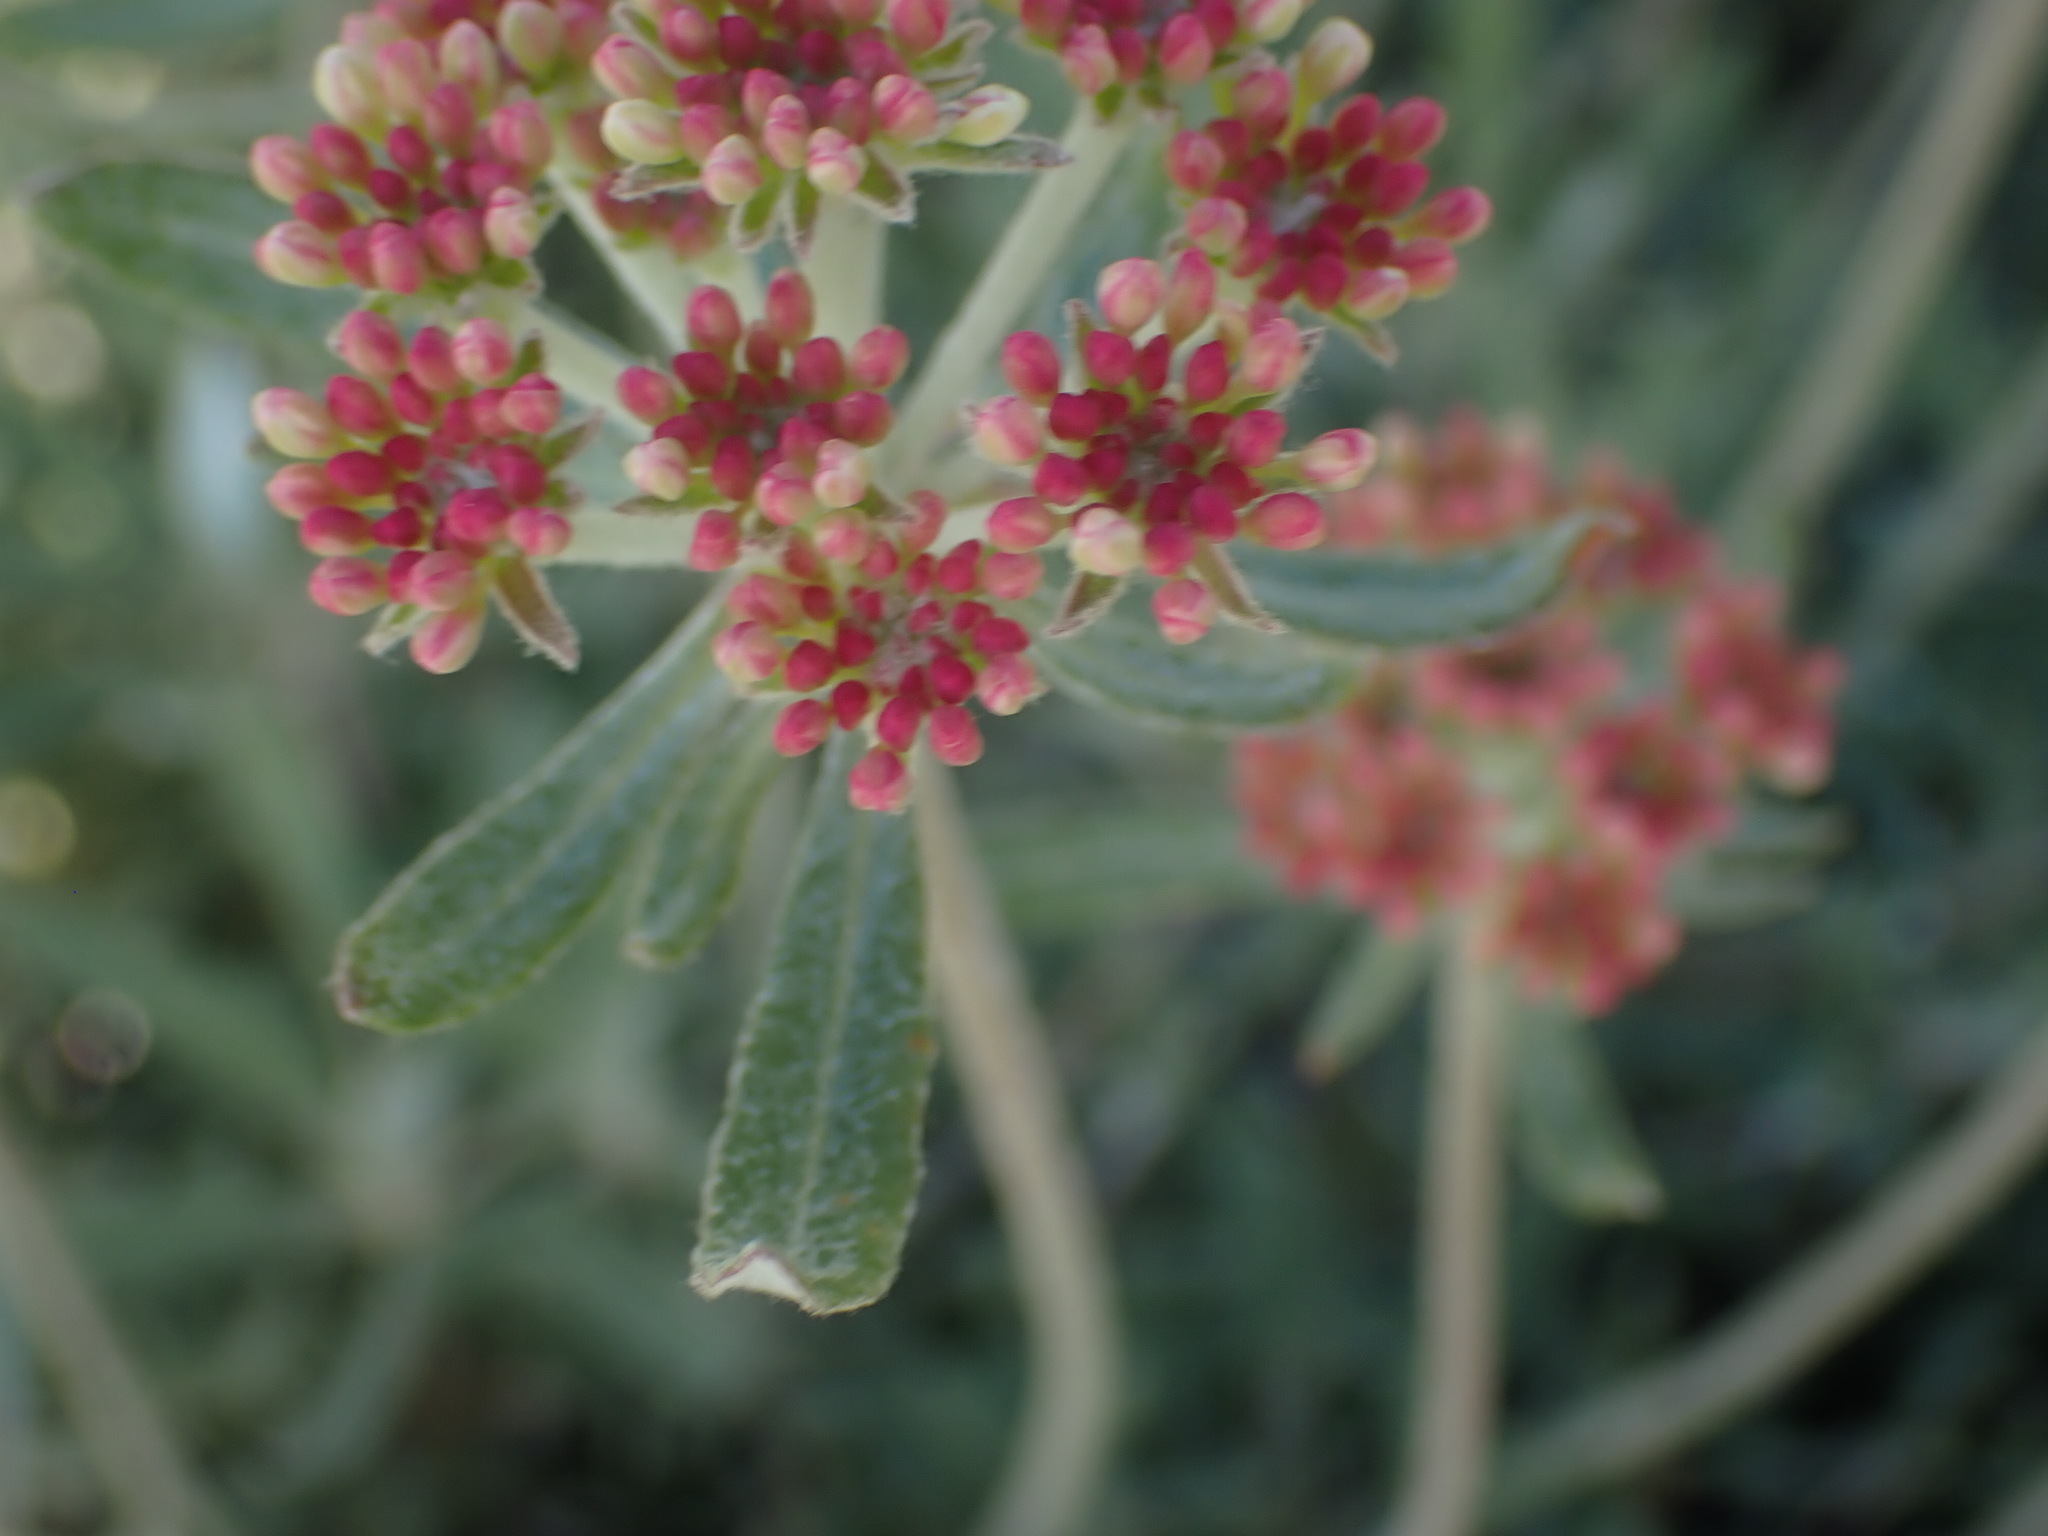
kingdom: Plantae
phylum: Tracheophyta
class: Magnoliopsida
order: Caryophyllales
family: Polygonaceae
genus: Eriogonum
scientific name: Eriogonum heracleoides
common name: Wyeth's buckwheat
